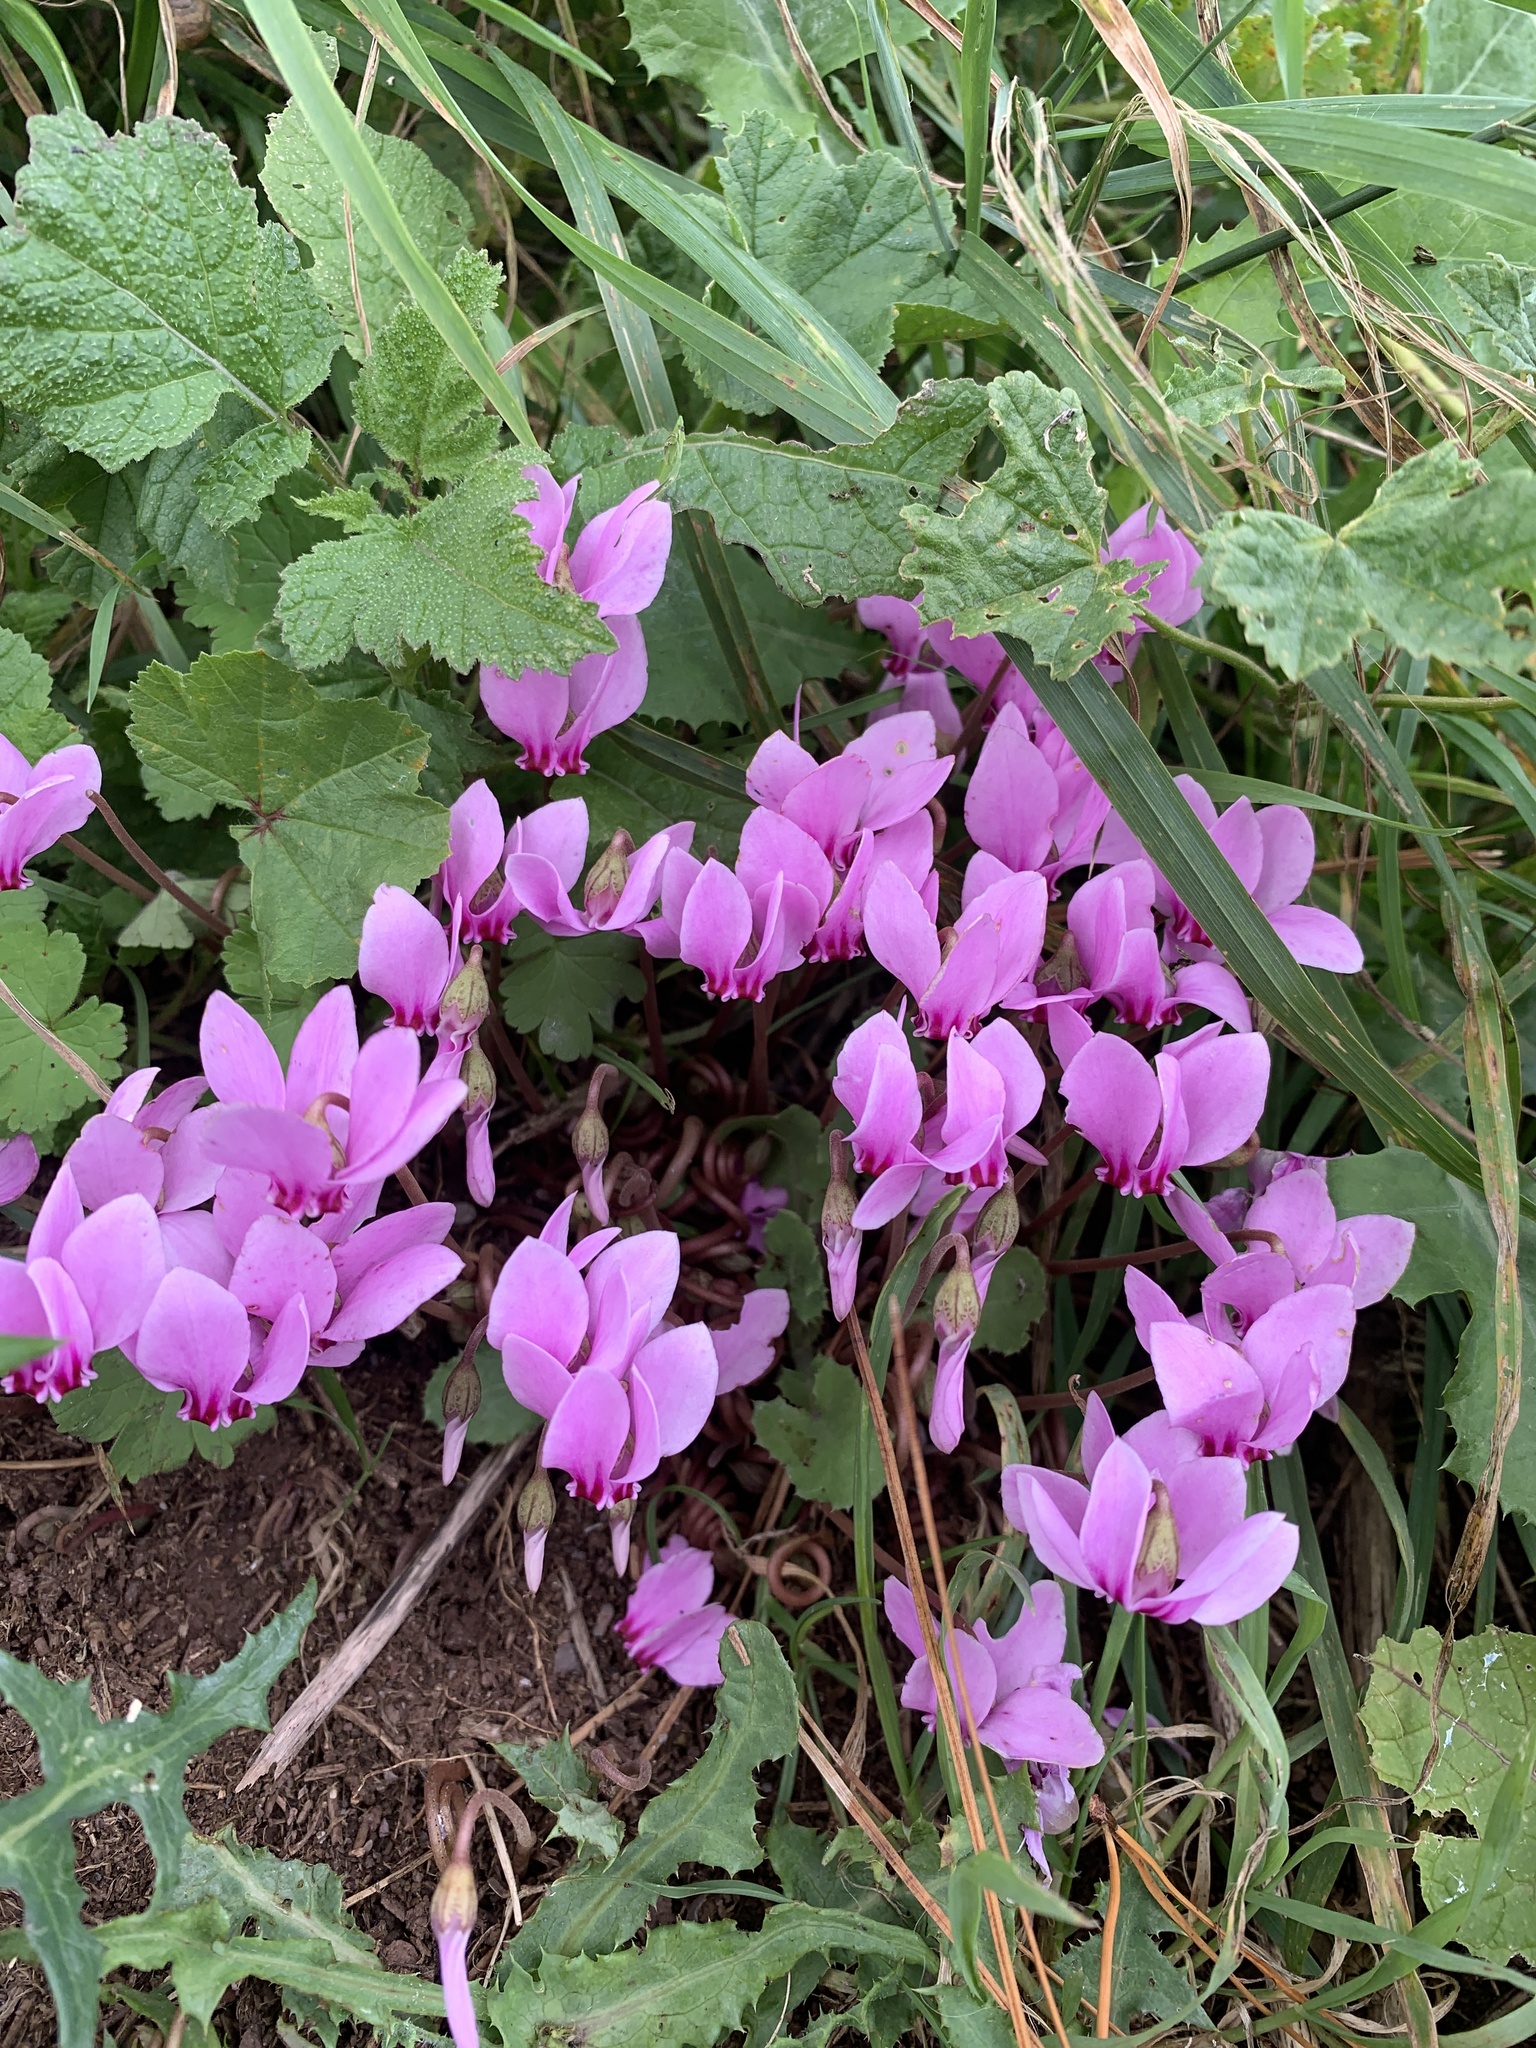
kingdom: Plantae
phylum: Tracheophyta
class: Magnoliopsida
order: Ericales
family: Primulaceae
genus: Cyclamen
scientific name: Cyclamen hederifolium
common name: Sowbread
